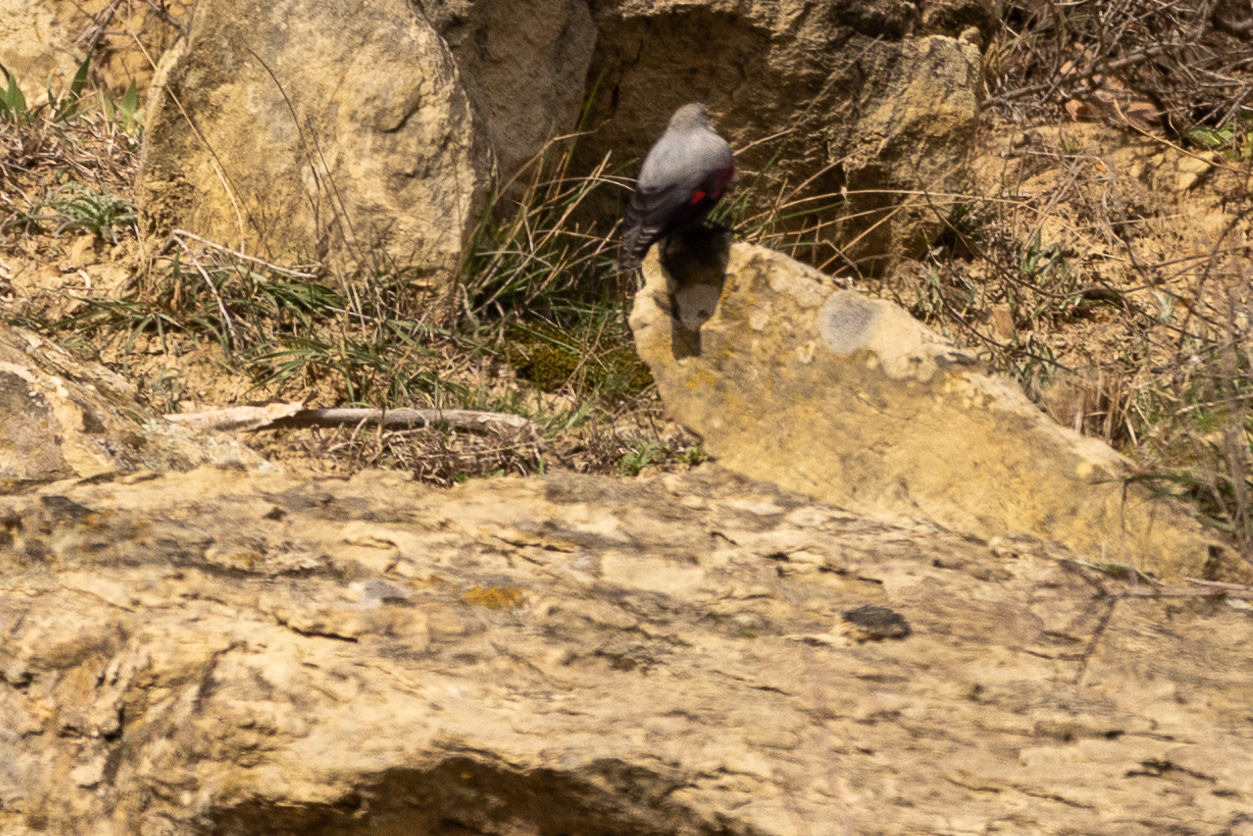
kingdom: Animalia
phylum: Chordata
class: Aves
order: Passeriformes
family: Tichodromidae
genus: Tichodroma
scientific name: Tichodroma muraria
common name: Wallcreeper
